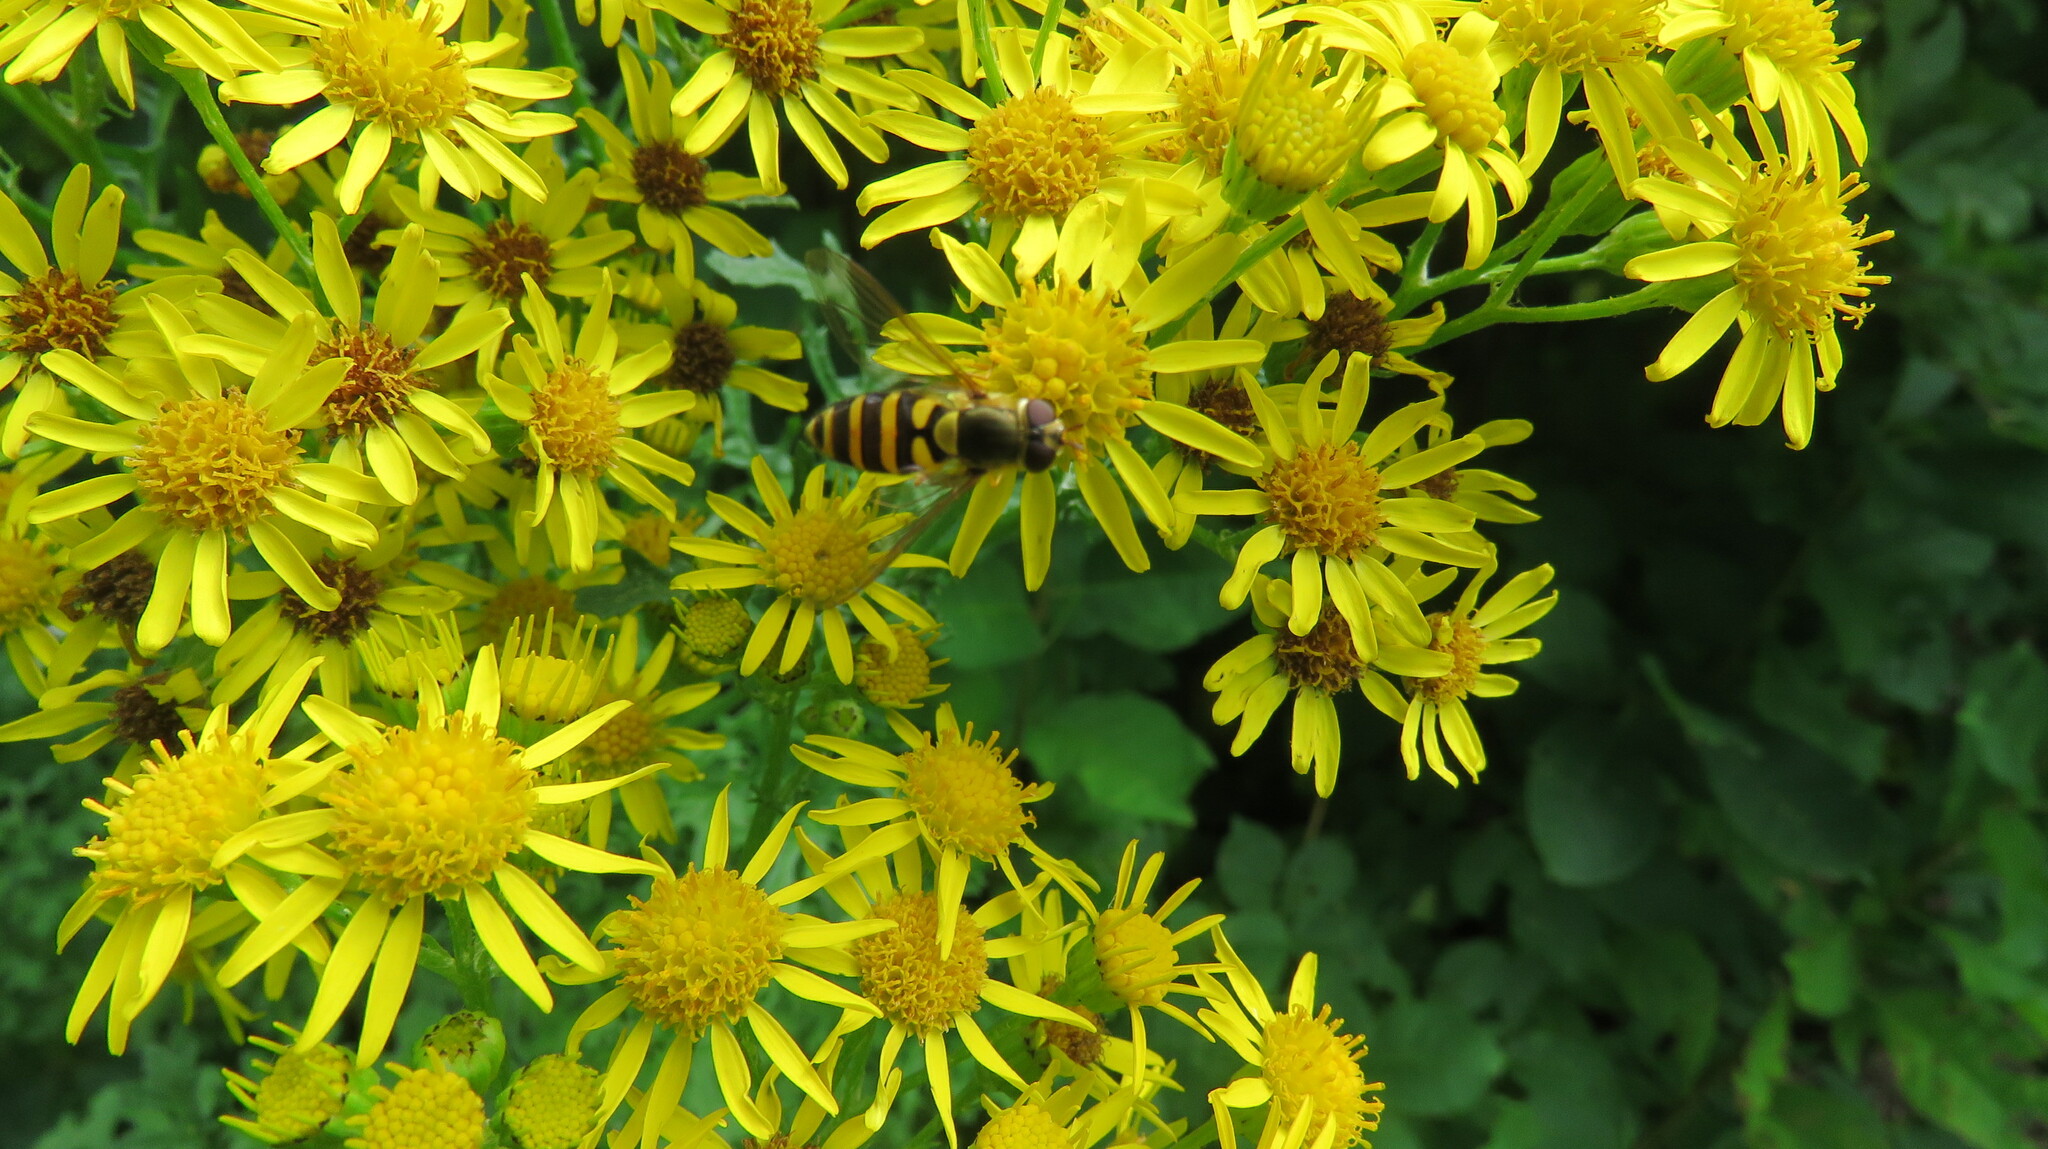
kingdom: Animalia
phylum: Arthropoda
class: Insecta
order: Diptera
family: Syrphidae
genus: Syrphus
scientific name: Syrphus
